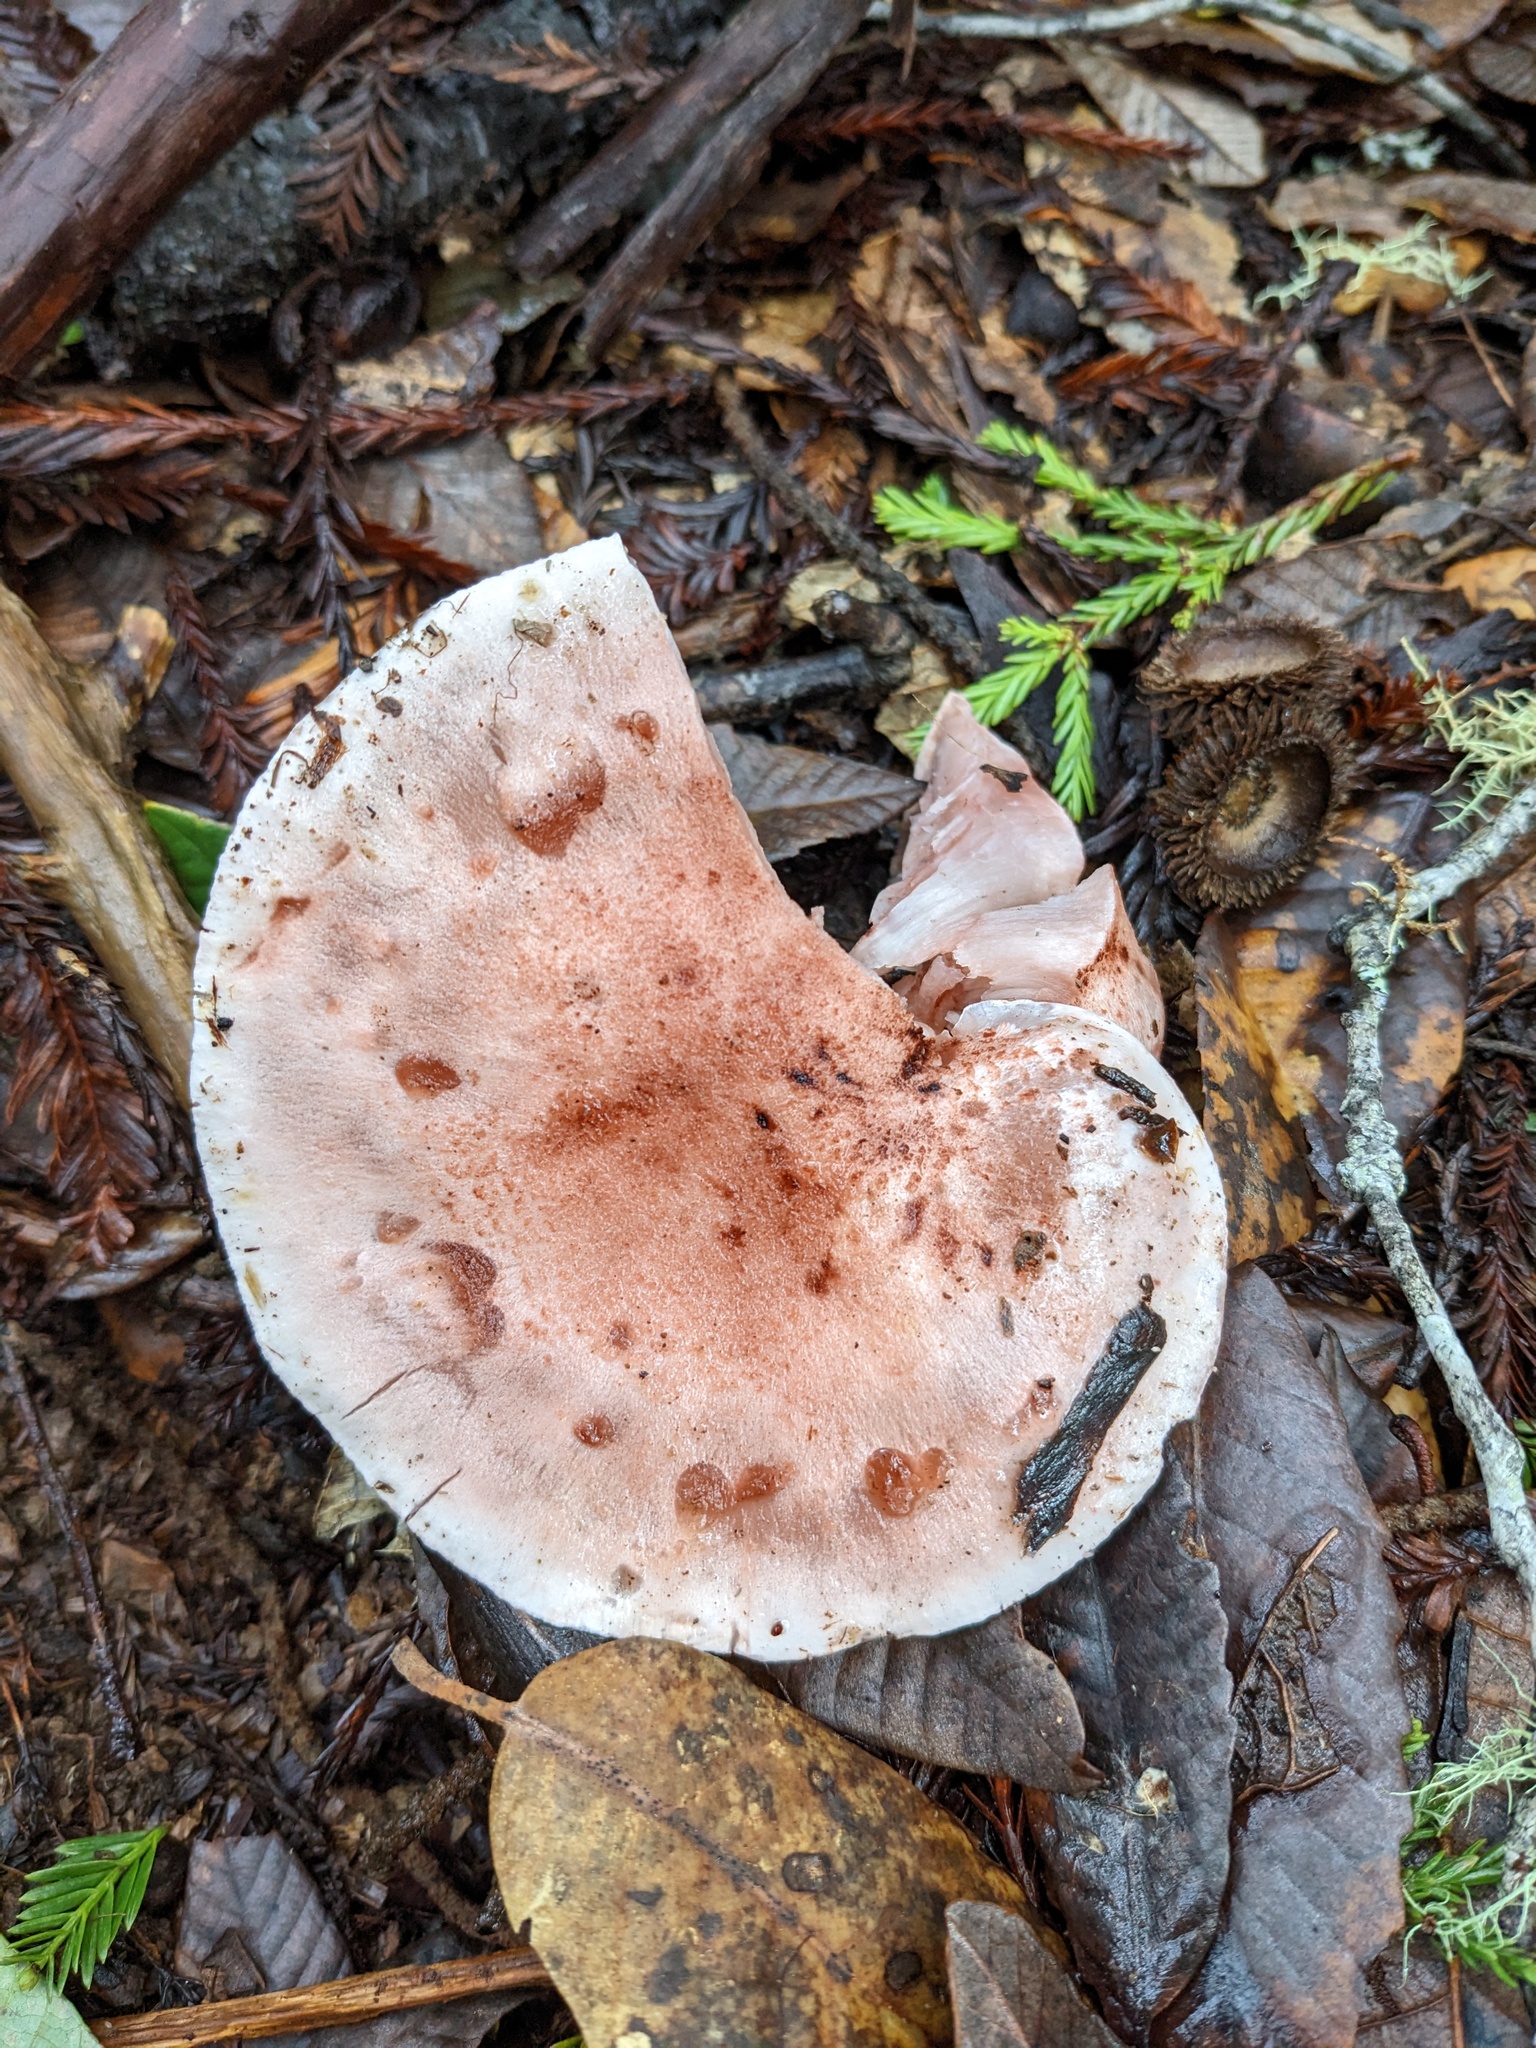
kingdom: Fungi
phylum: Basidiomycota
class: Agaricomycetes
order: Agaricales
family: Hygrophoraceae
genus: Hygrophorus
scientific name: Hygrophorus russula
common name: Pinkmottle woodwax
